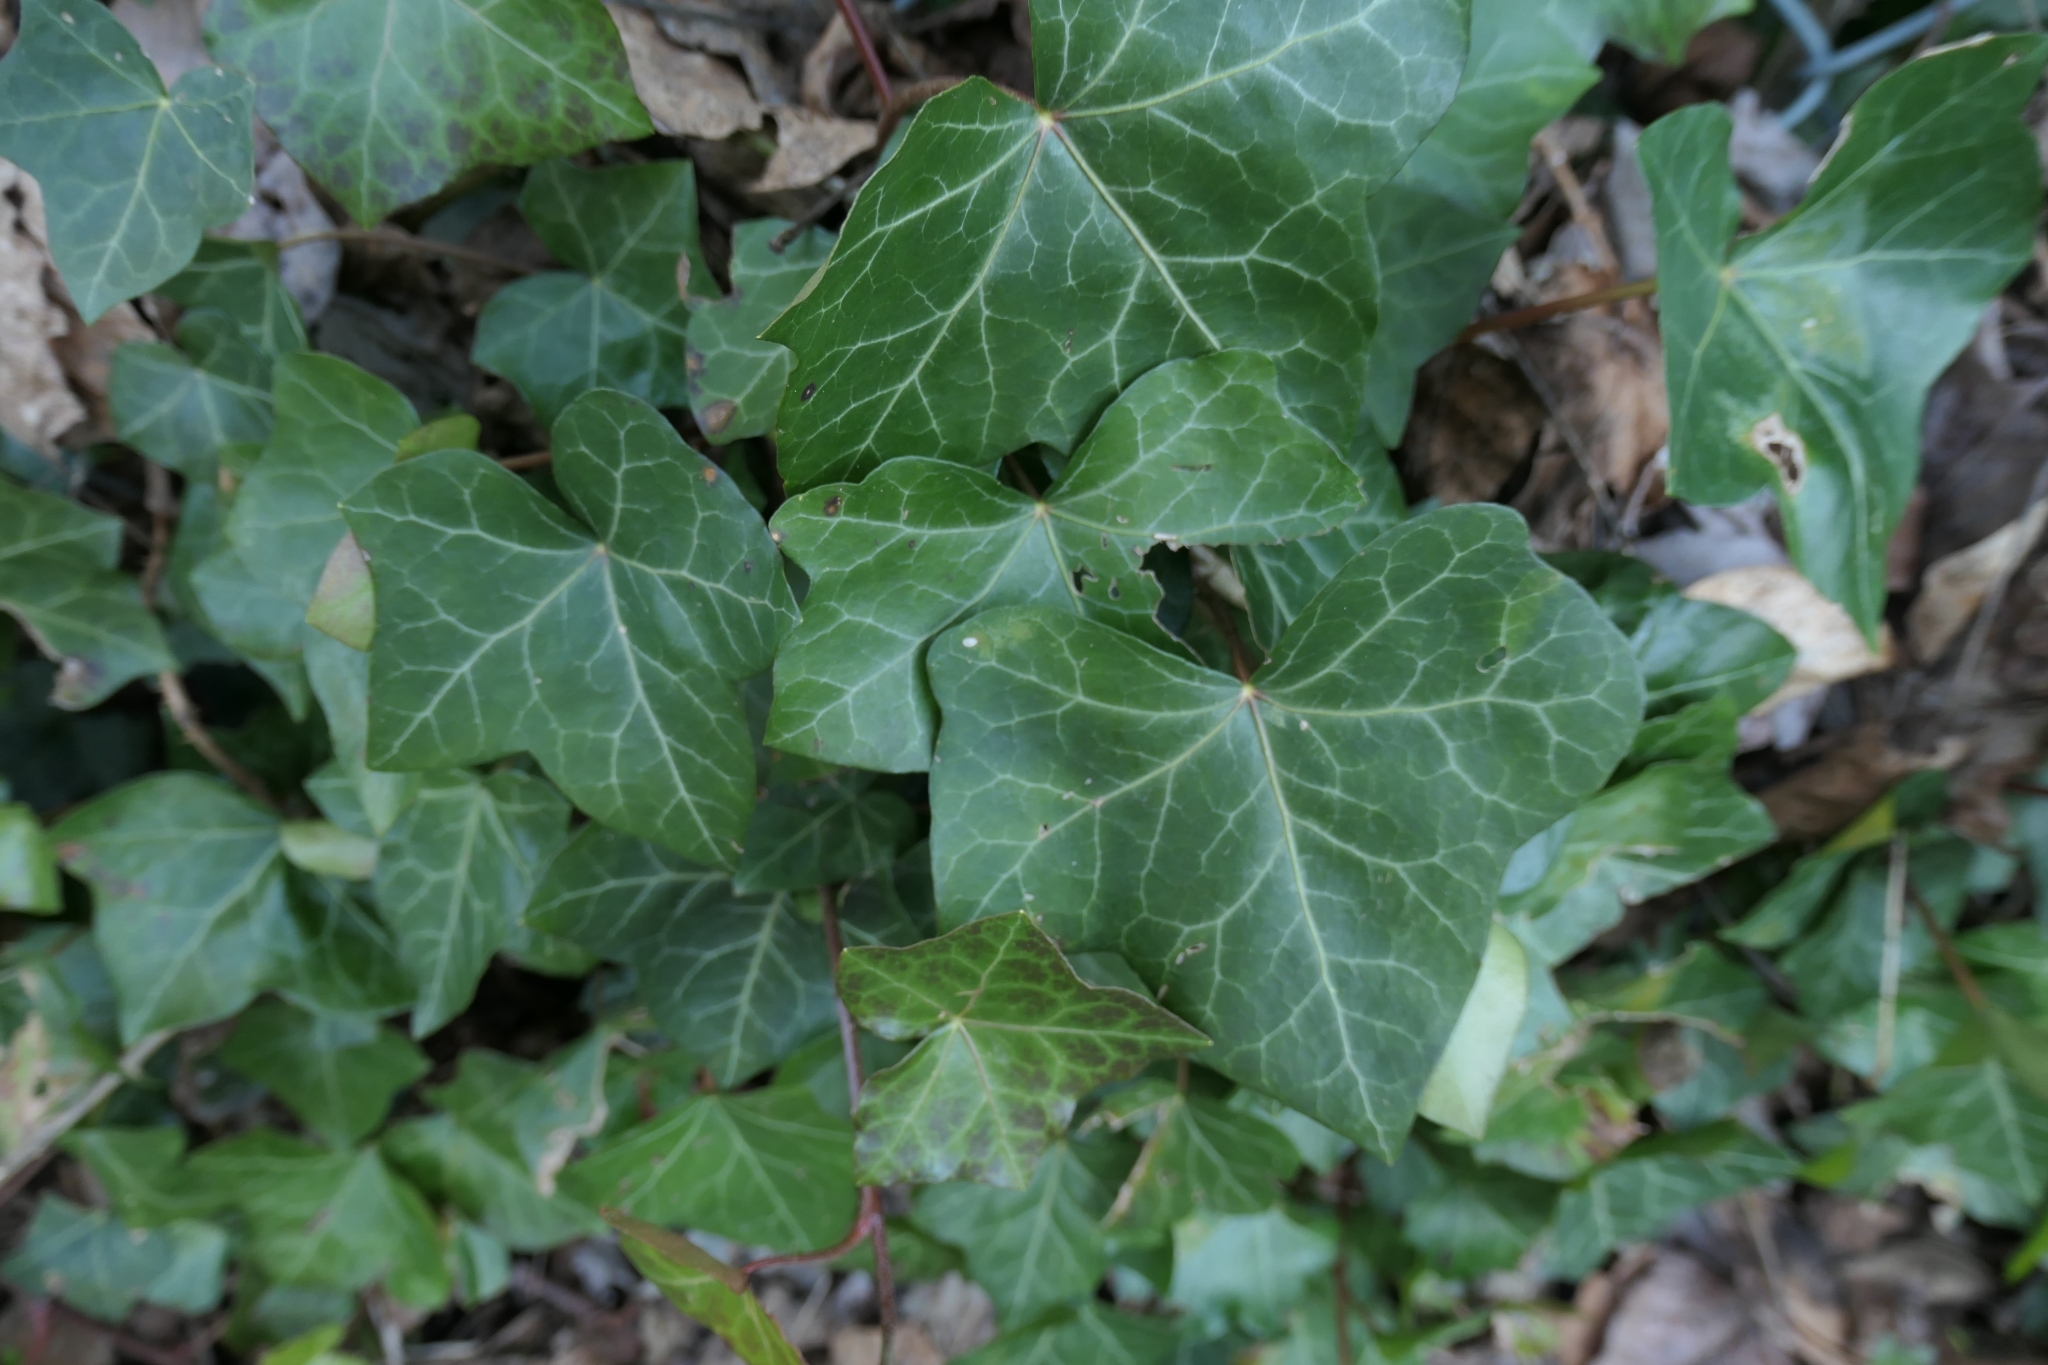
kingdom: Plantae
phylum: Tracheophyta
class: Magnoliopsida
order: Apiales
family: Araliaceae
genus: Hedera
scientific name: Hedera helix
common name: Ivy
